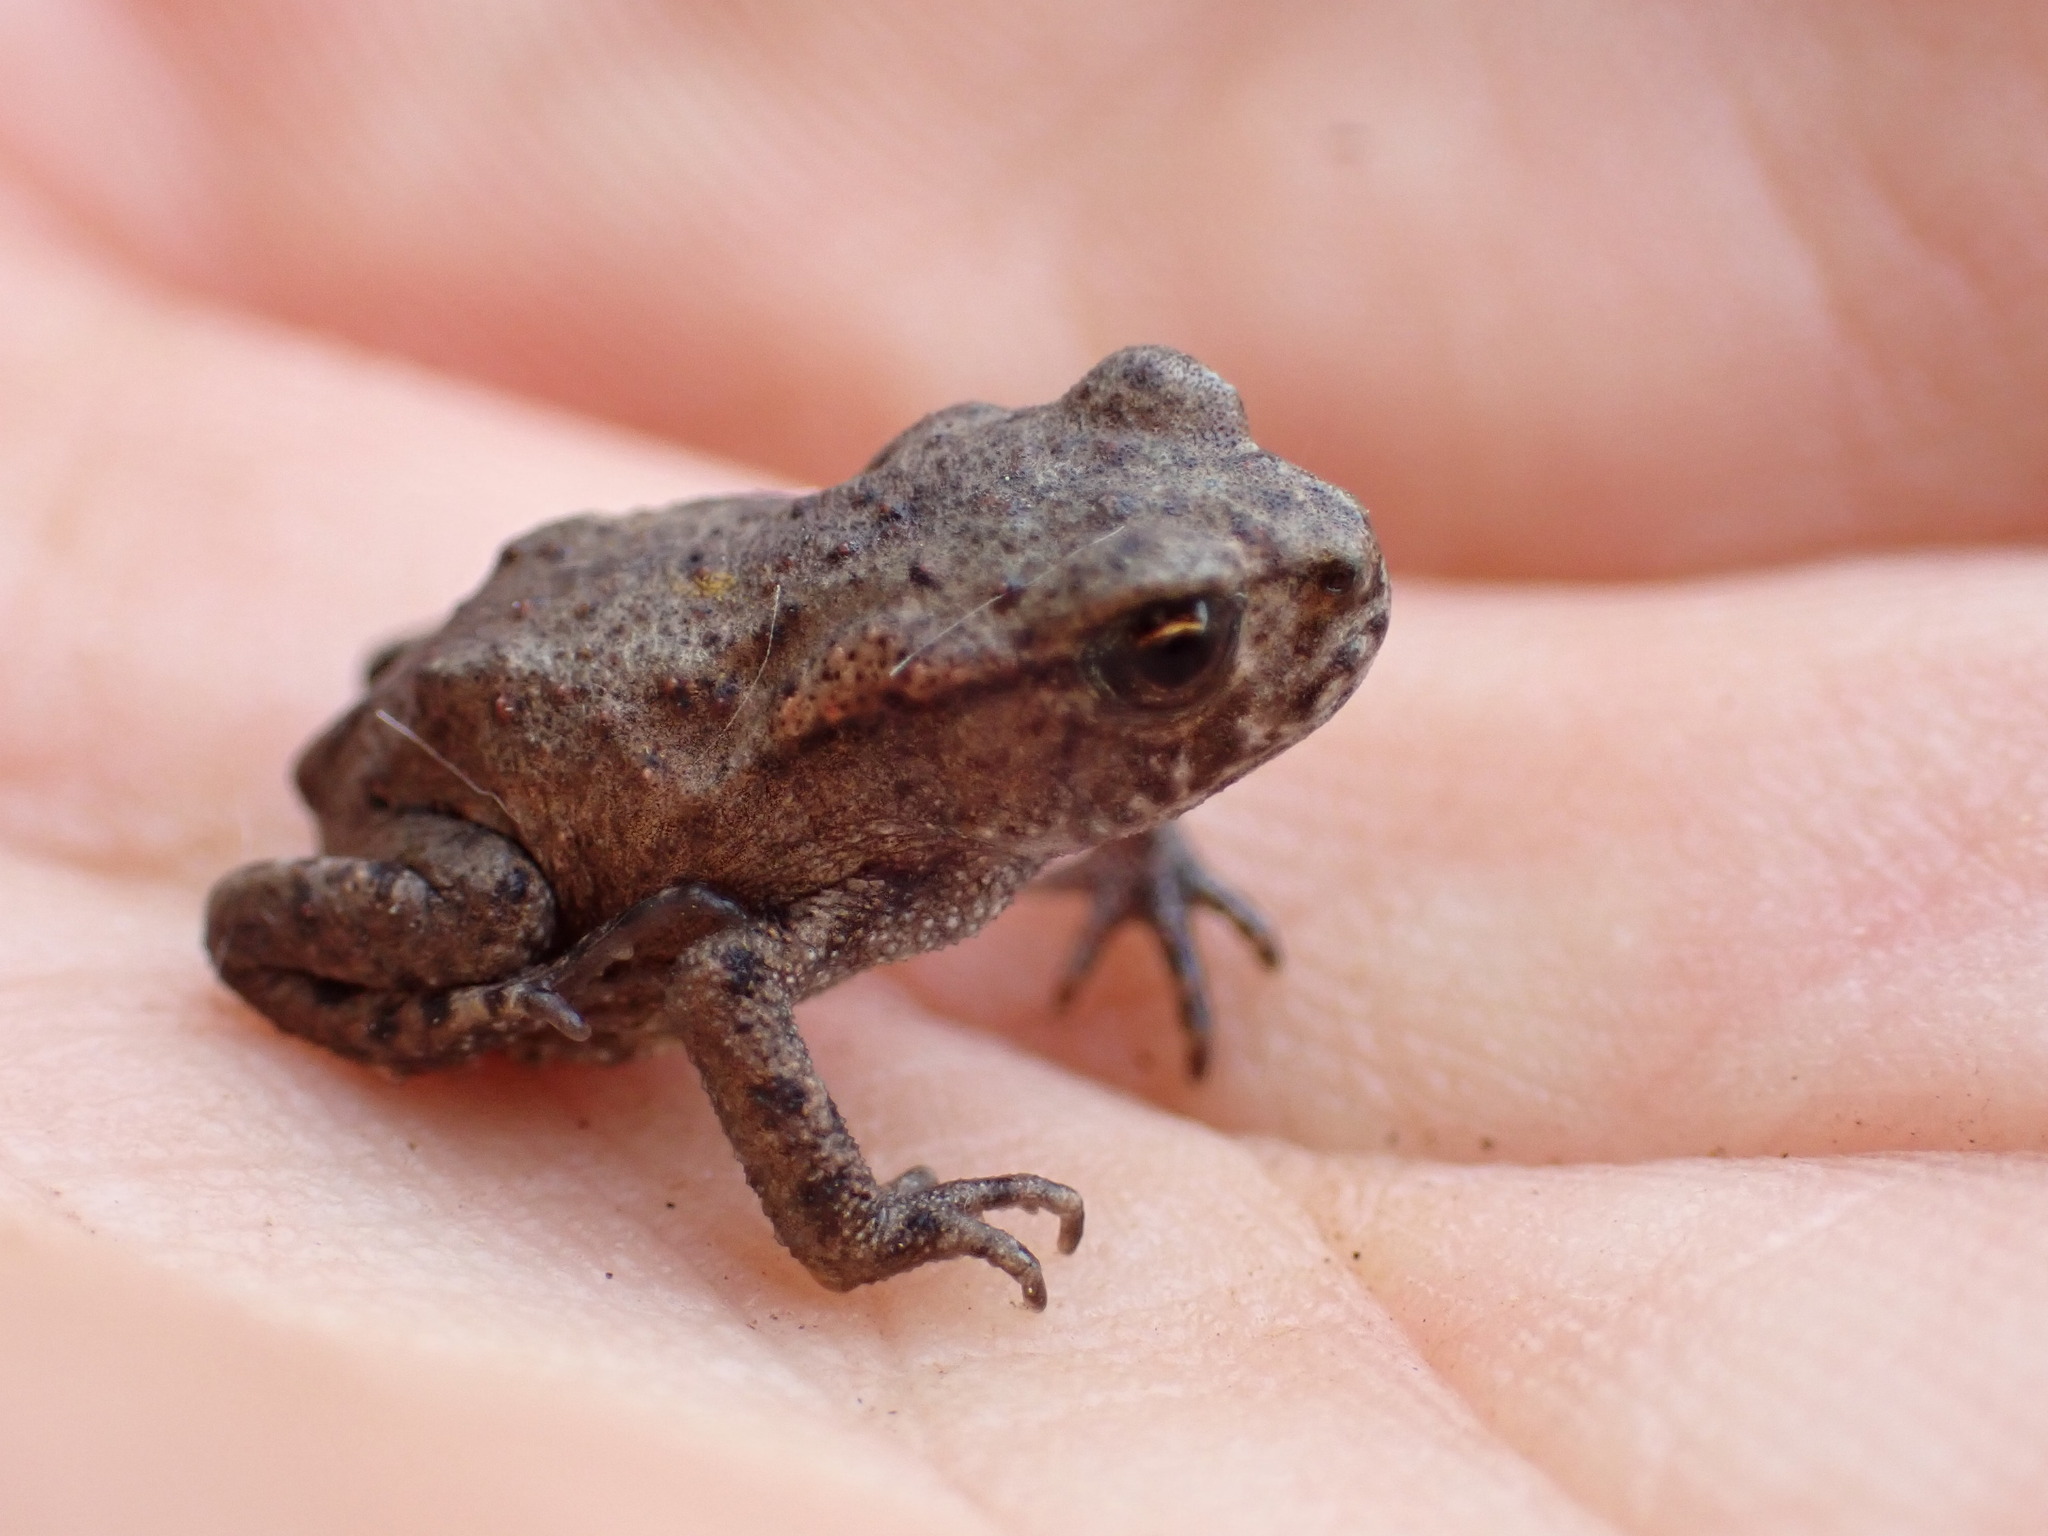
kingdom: Animalia
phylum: Chordata
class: Amphibia
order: Anura
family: Bufonidae
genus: Bufo
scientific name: Bufo bufo
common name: Common toad
